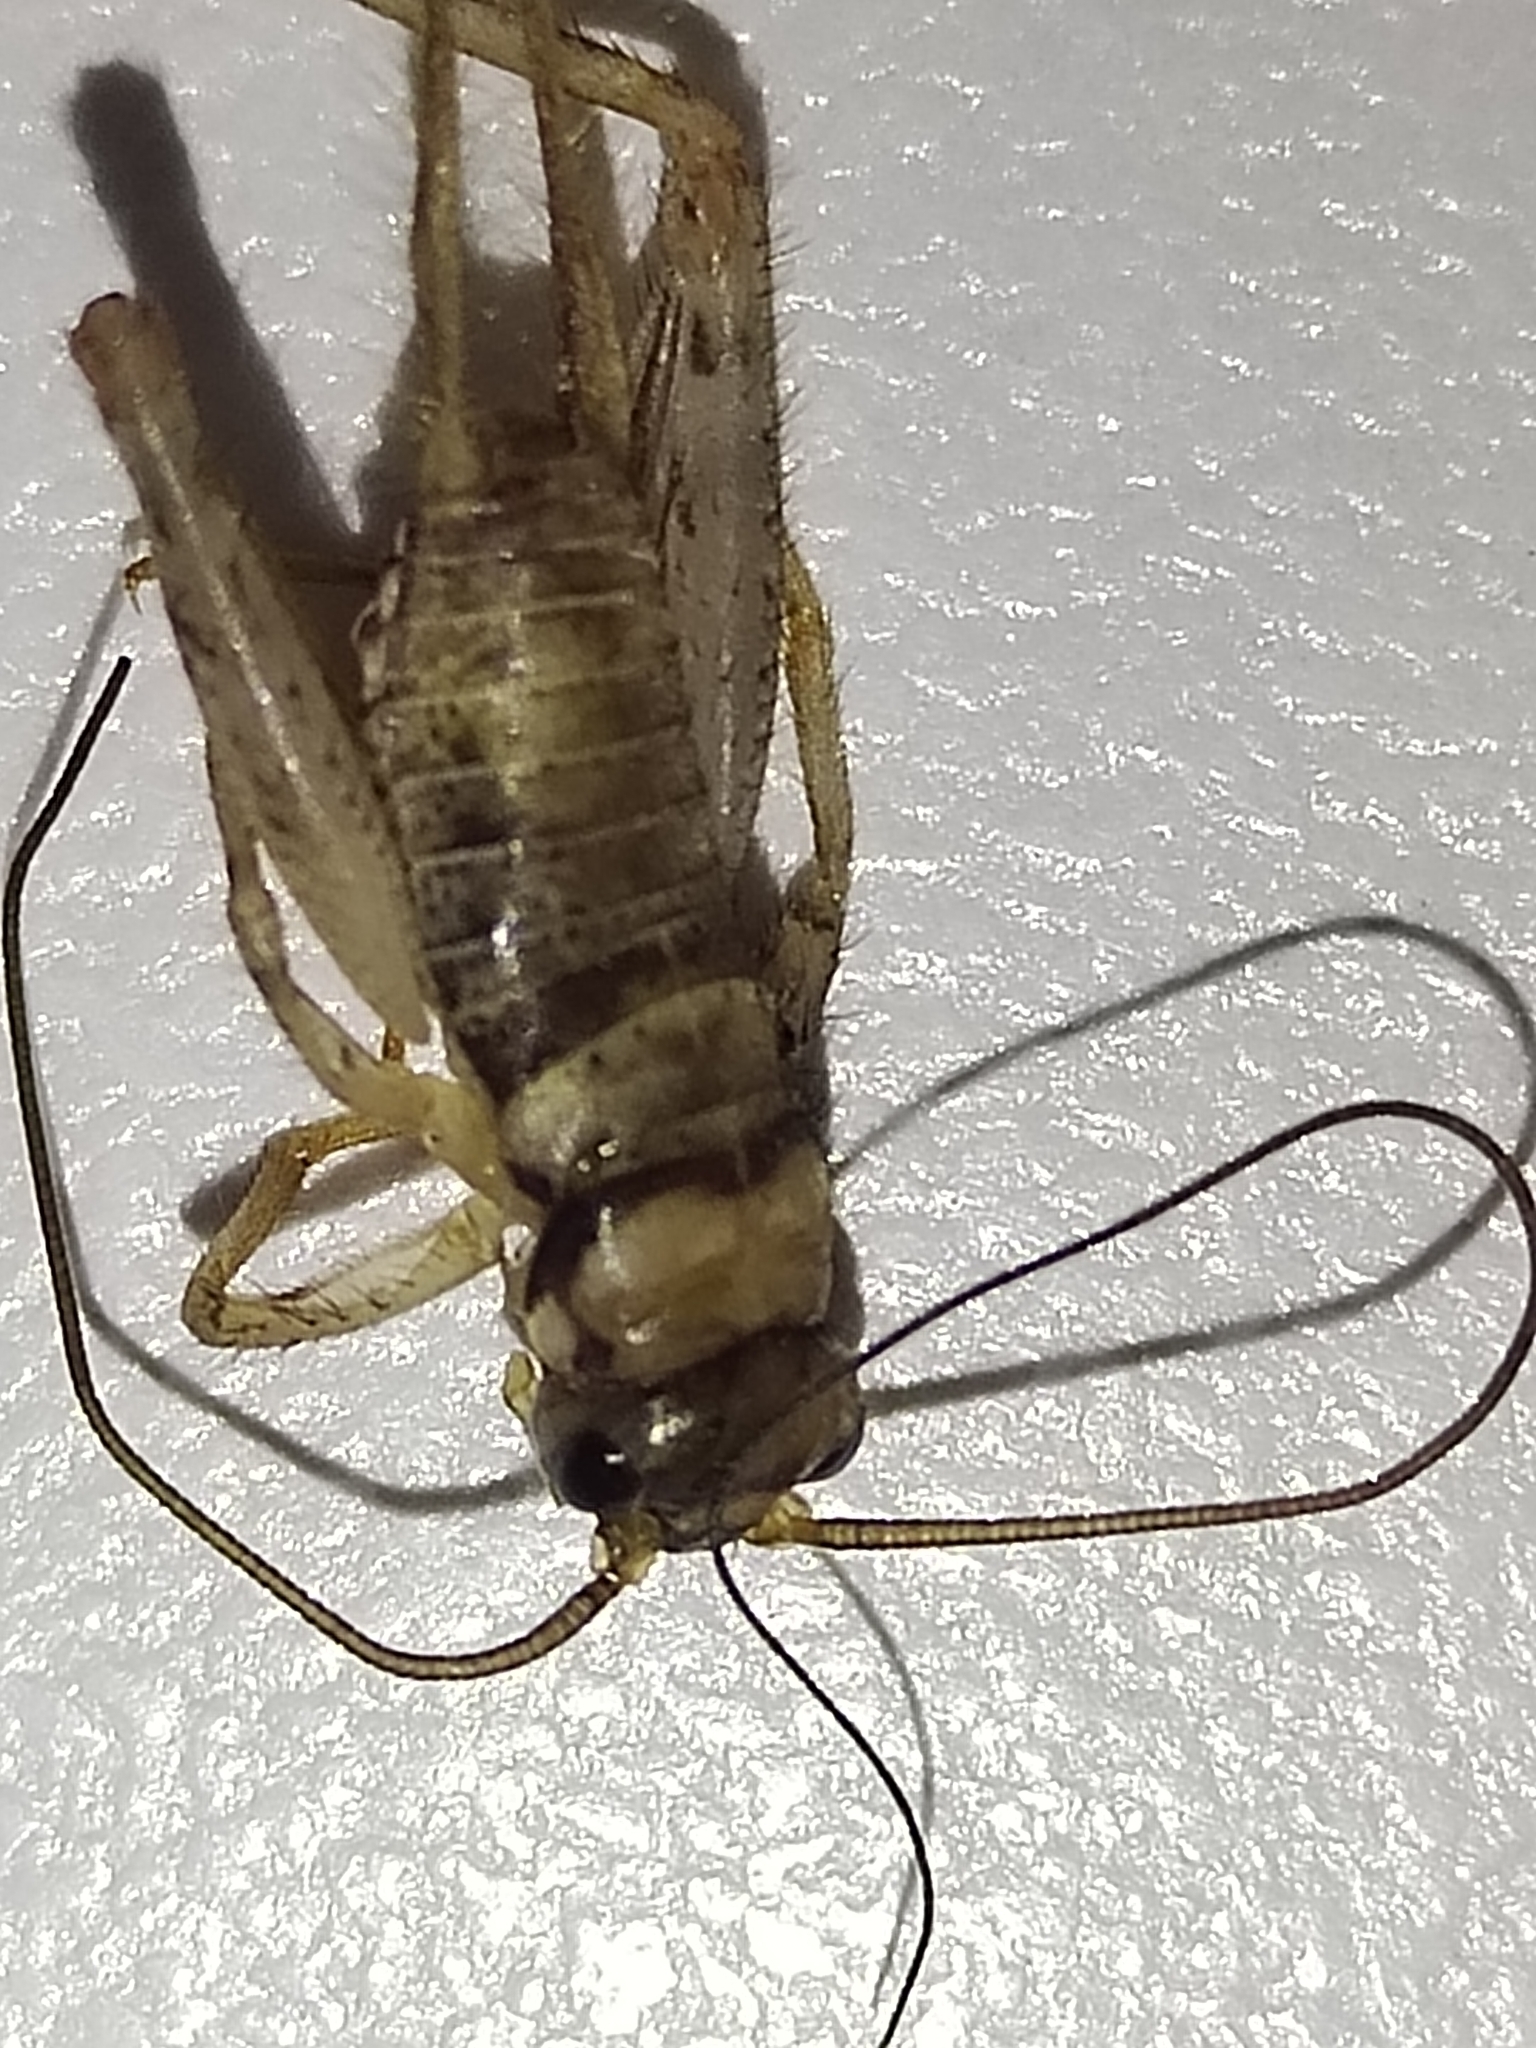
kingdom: Animalia
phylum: Arthropoda
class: Insecta
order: Orthoptera
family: Gryllidae
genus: Gryllodes
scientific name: Gryllodes sigillatus
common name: Tropical house cricket
